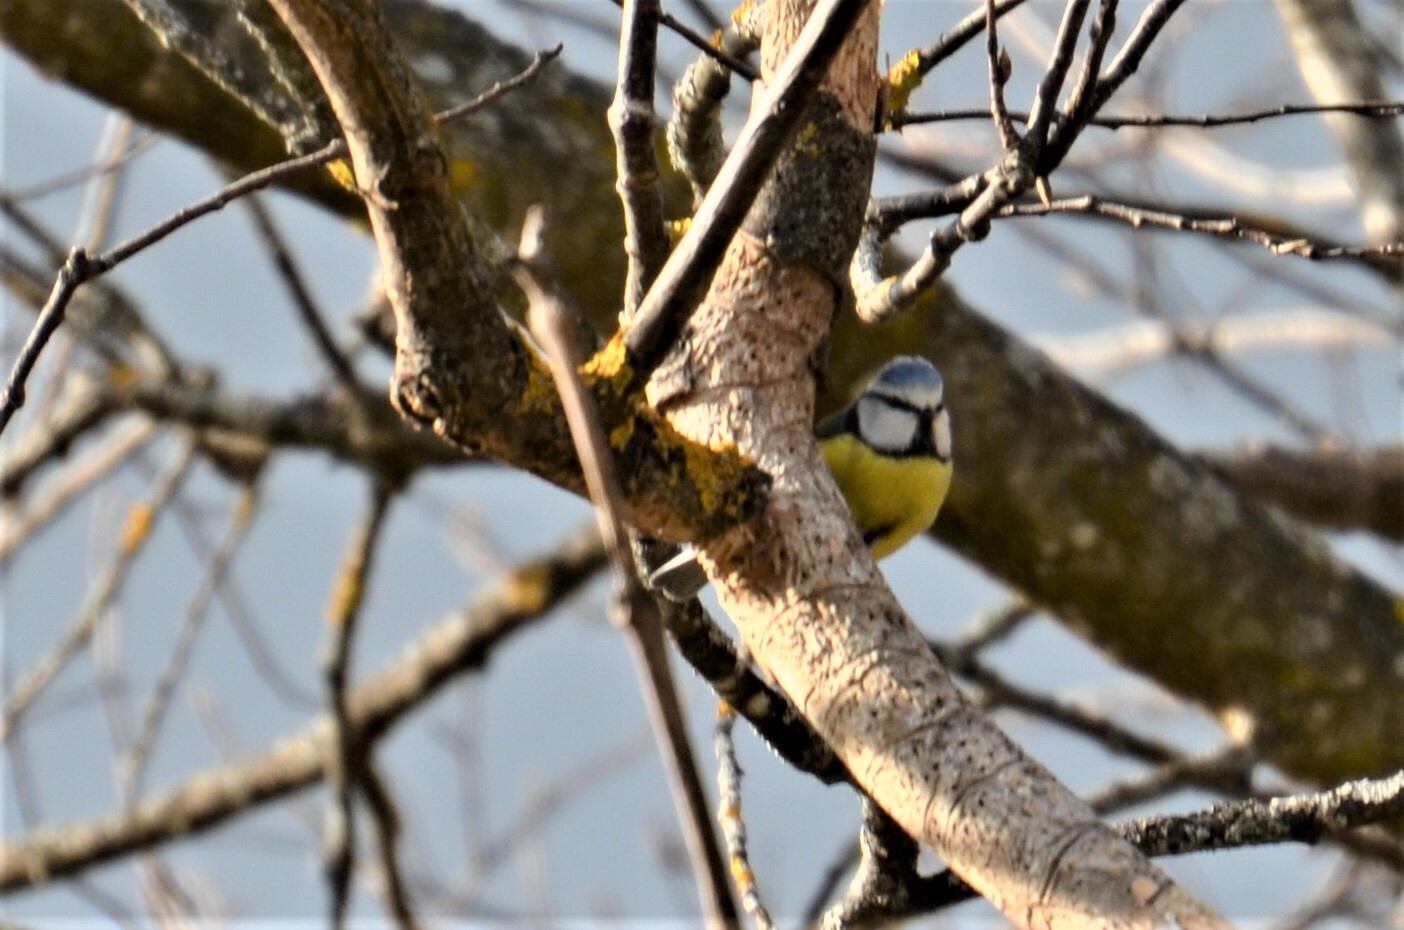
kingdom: Animalia
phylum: Chordata
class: Aves
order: Passeriformes
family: Paridae
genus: Cyanistes
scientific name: Cyanistes caeruleus
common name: Eurasian blue tit
